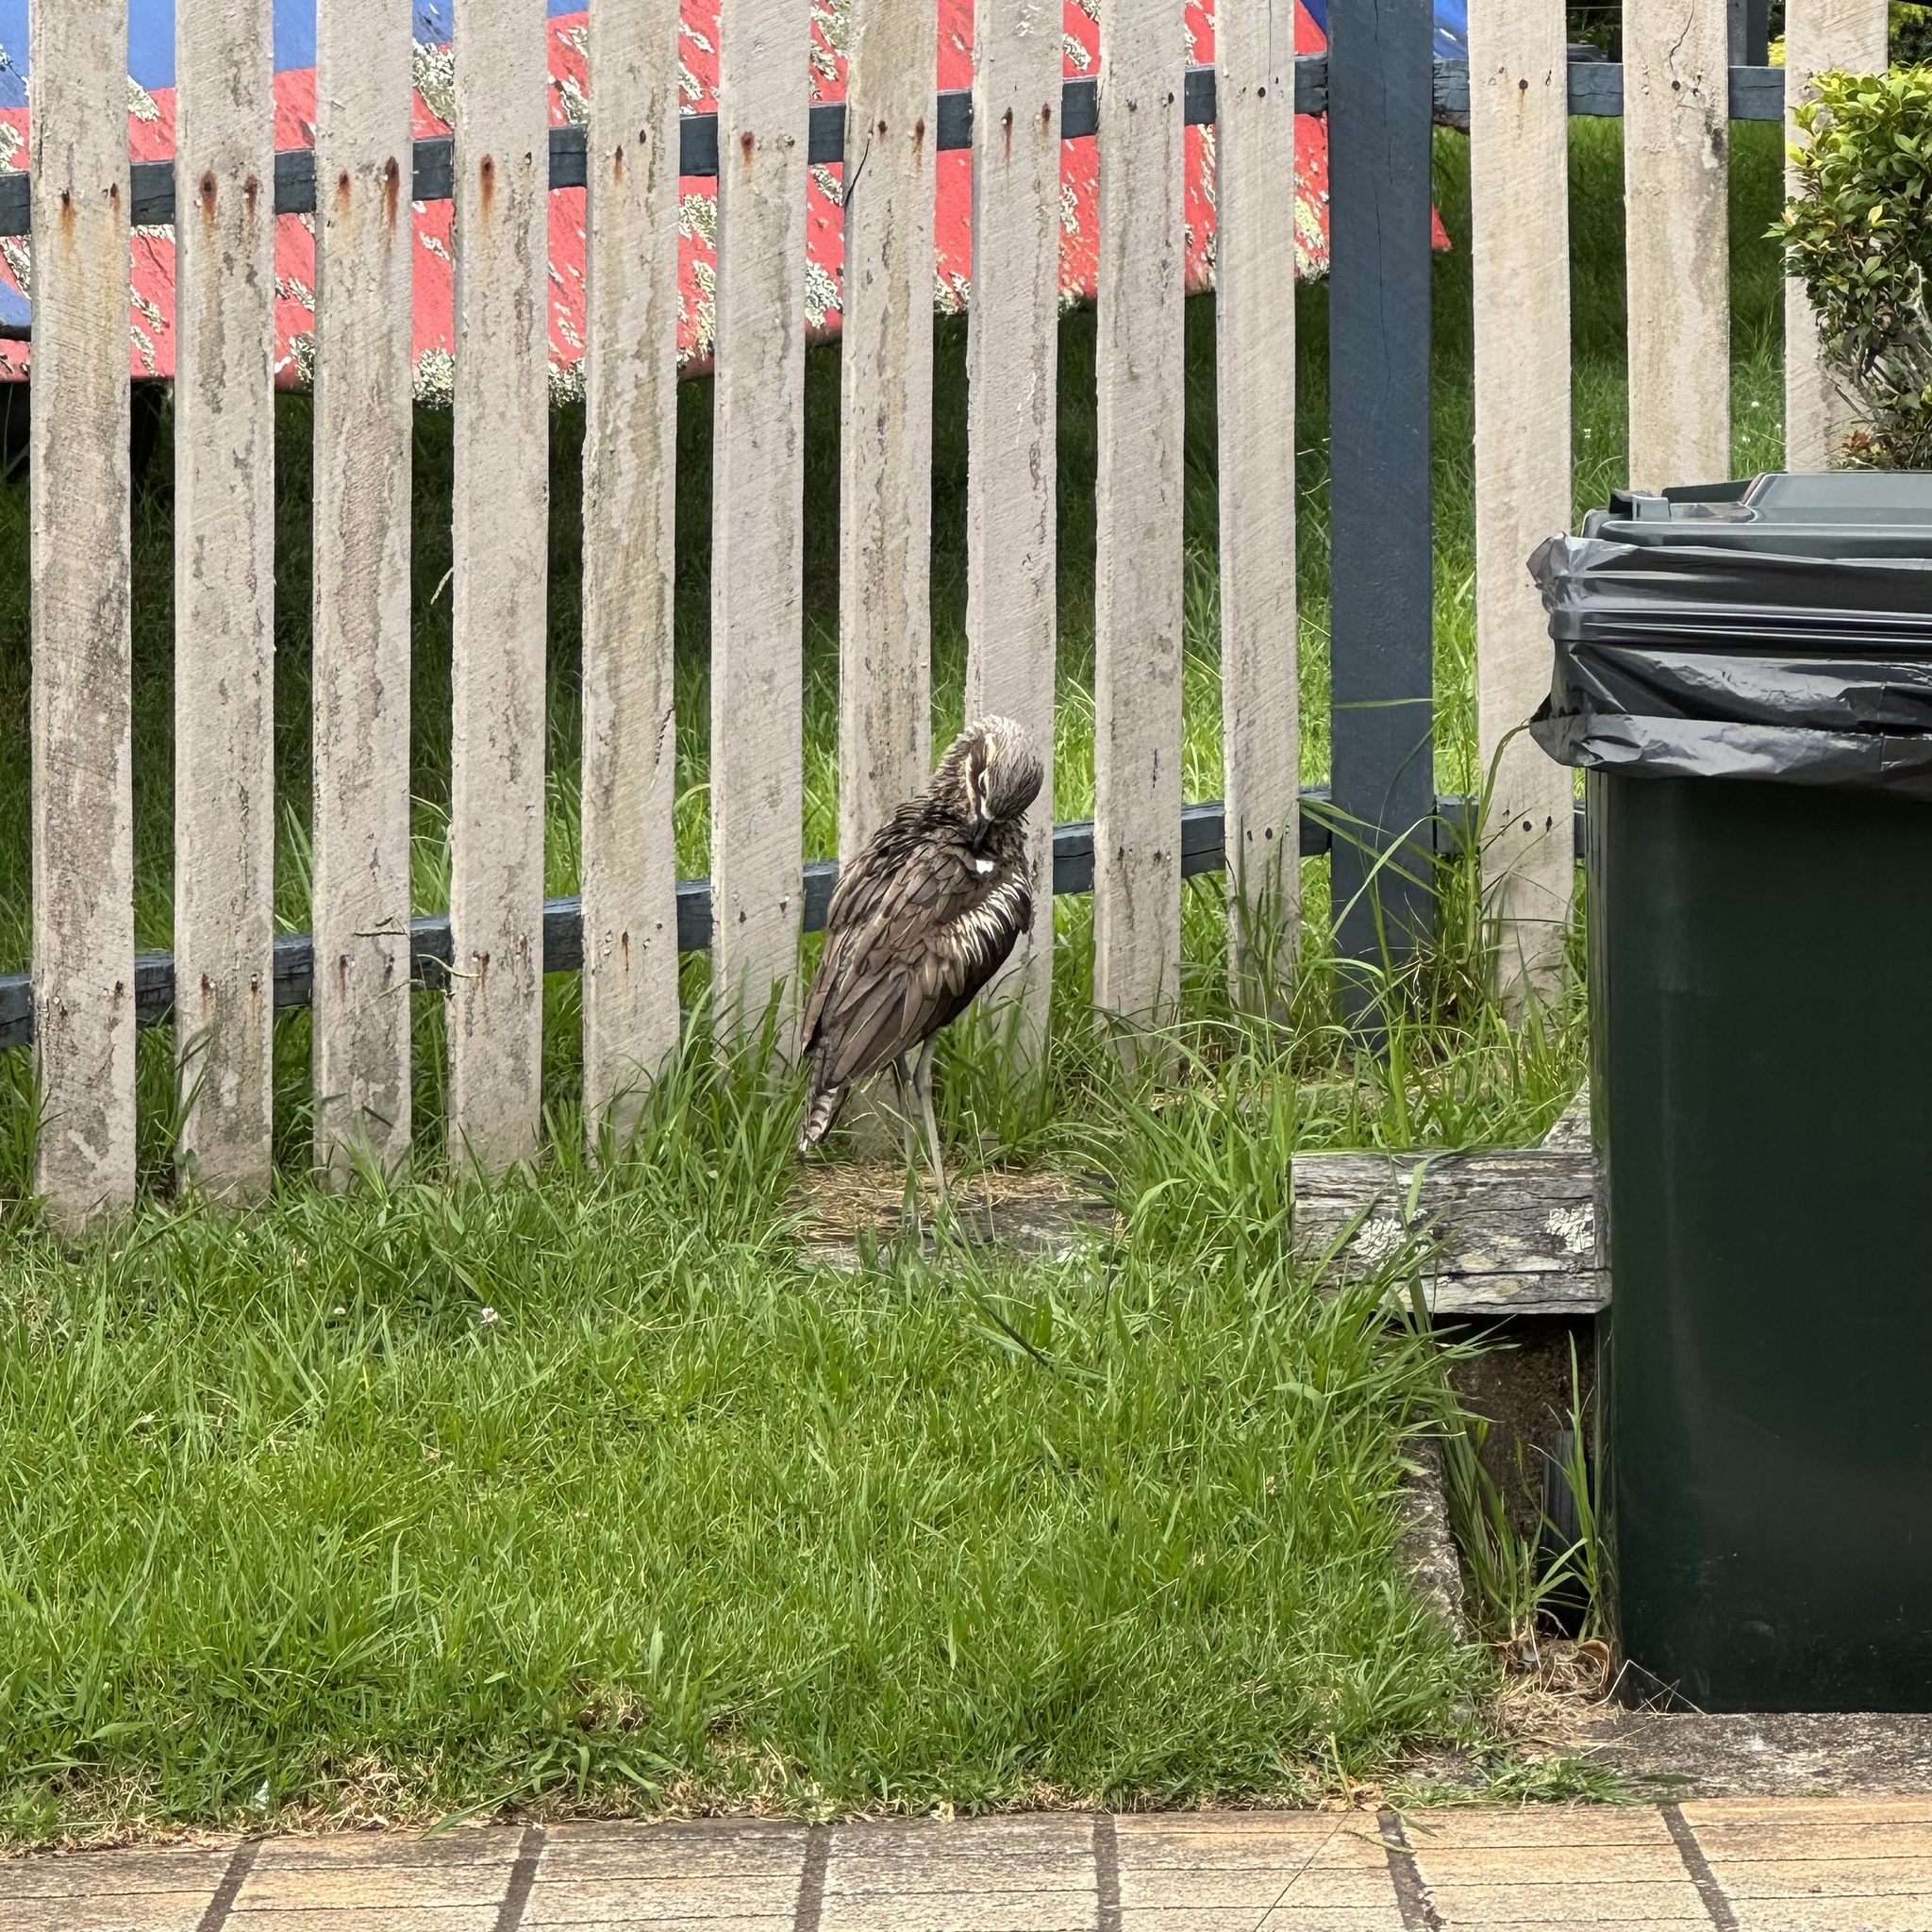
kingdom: Animalia
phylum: Chordata
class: Aves
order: Charadriiformes
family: Burhinidae
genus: Burhinus
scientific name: Burhinus grallarius
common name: Bush stone-curlew
